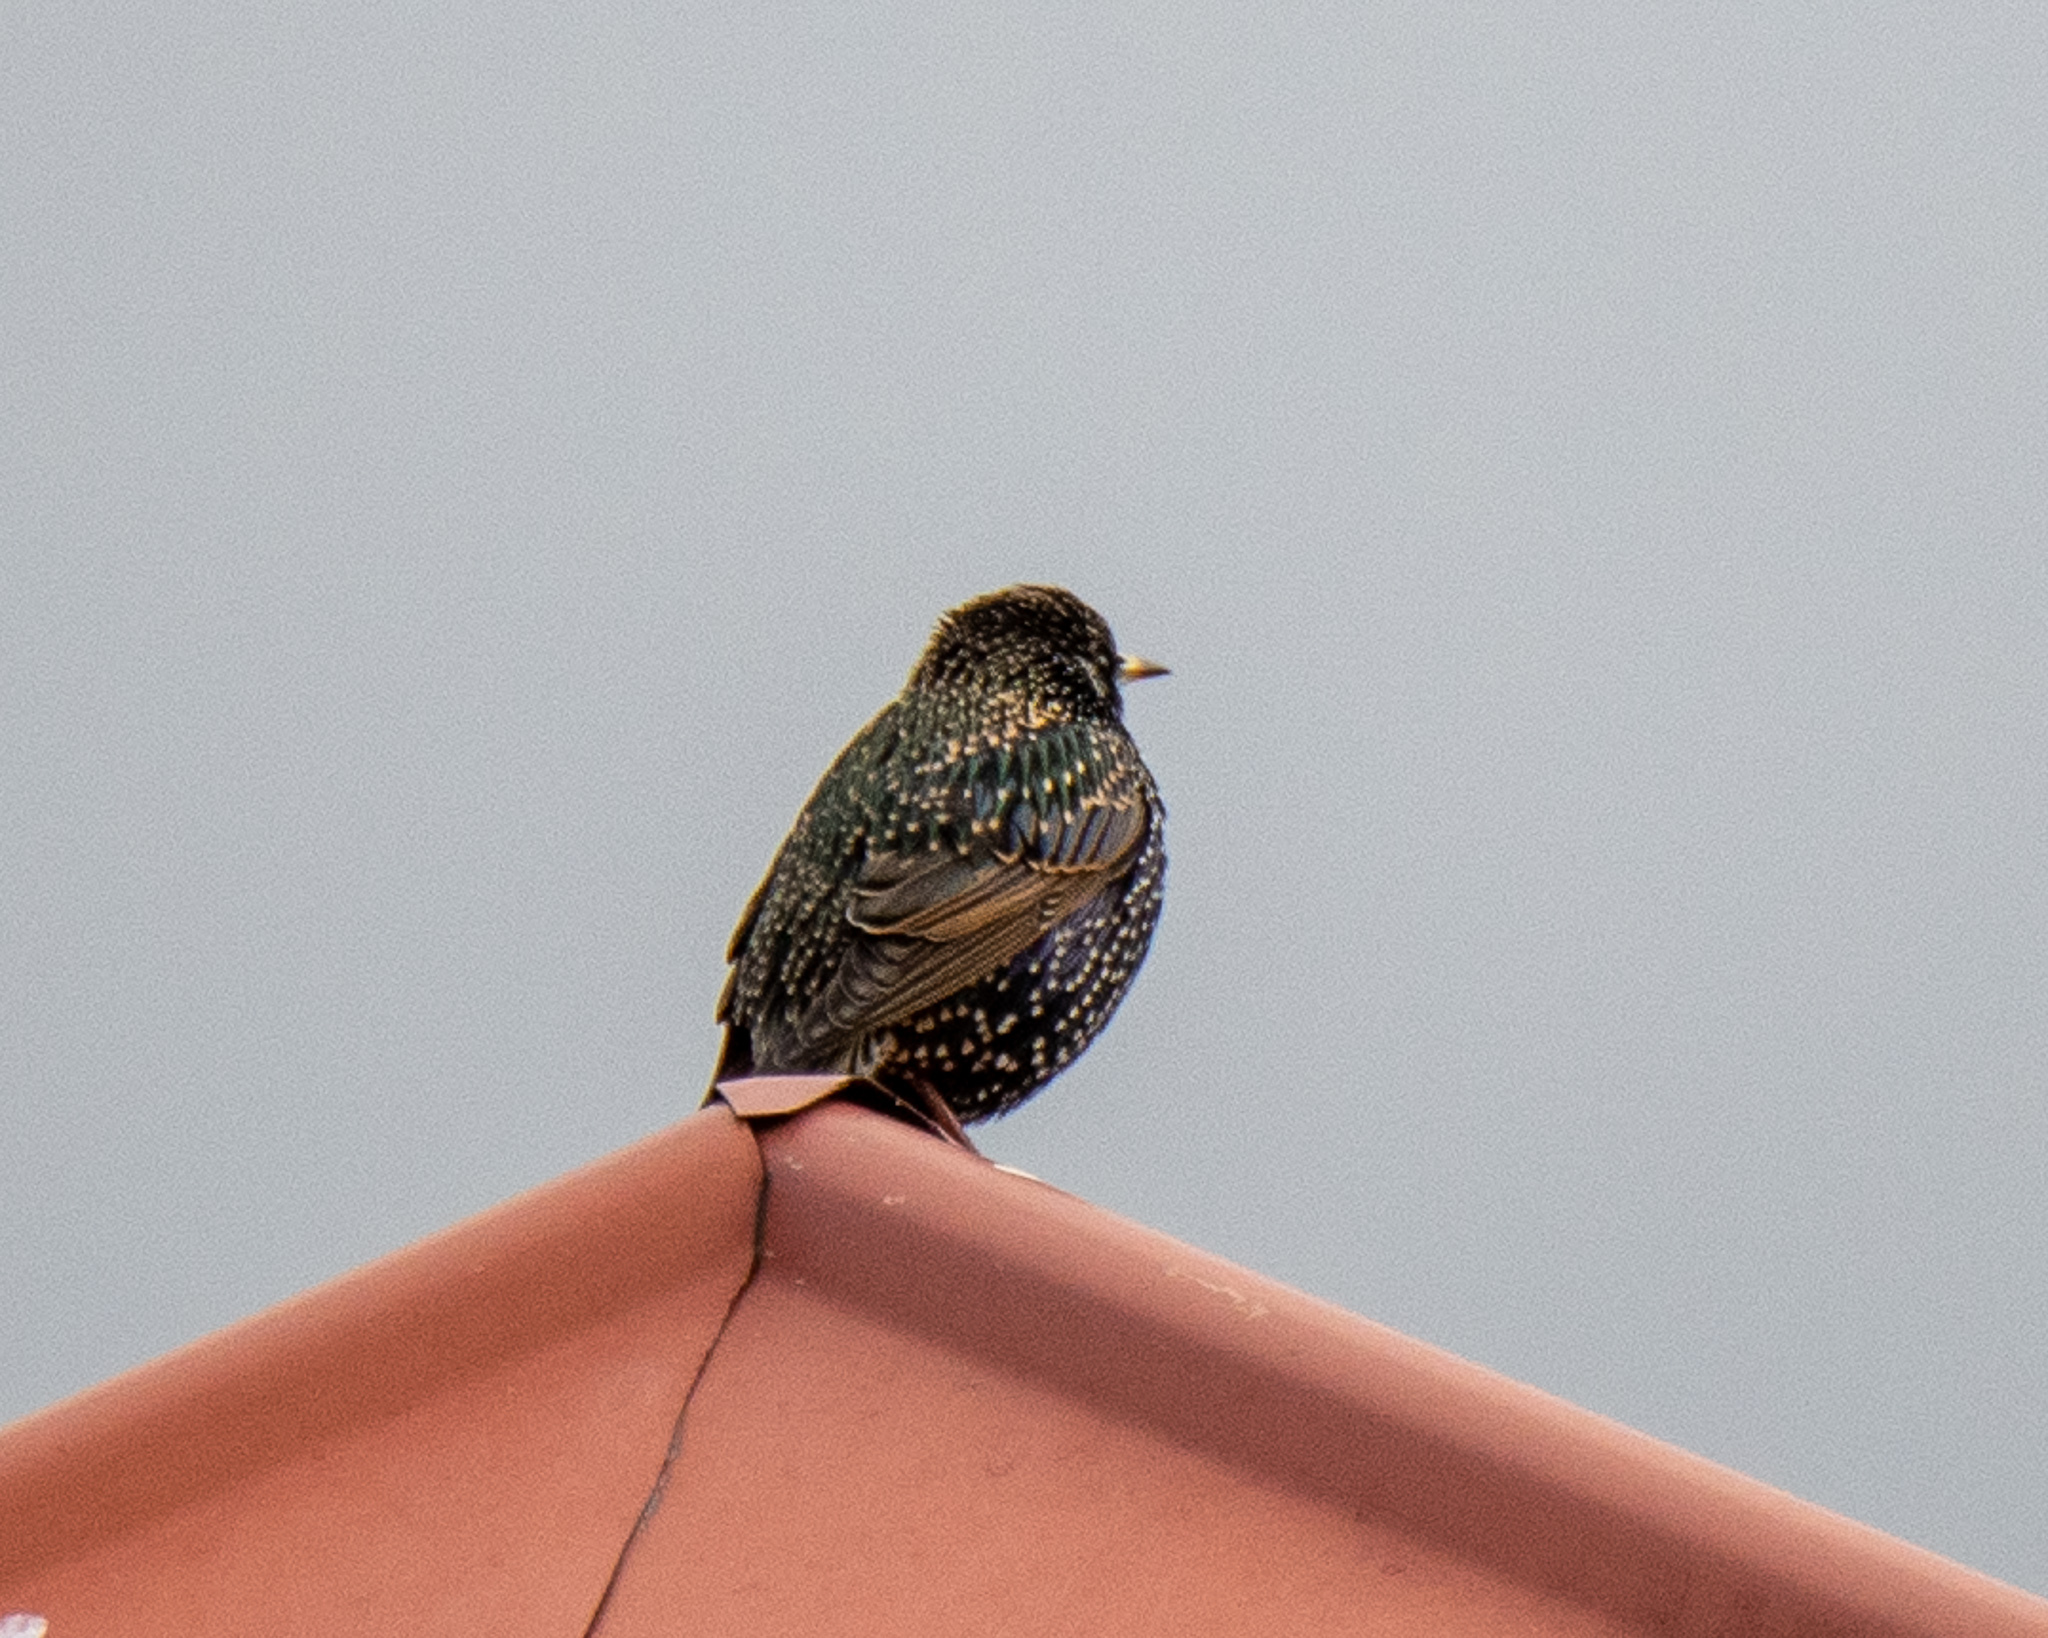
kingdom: Animalia
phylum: Chordata
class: Aves
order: Passeriformes
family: Sturnidae
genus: Sturnus
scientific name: Sturnus vulgaris
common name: Common starling
